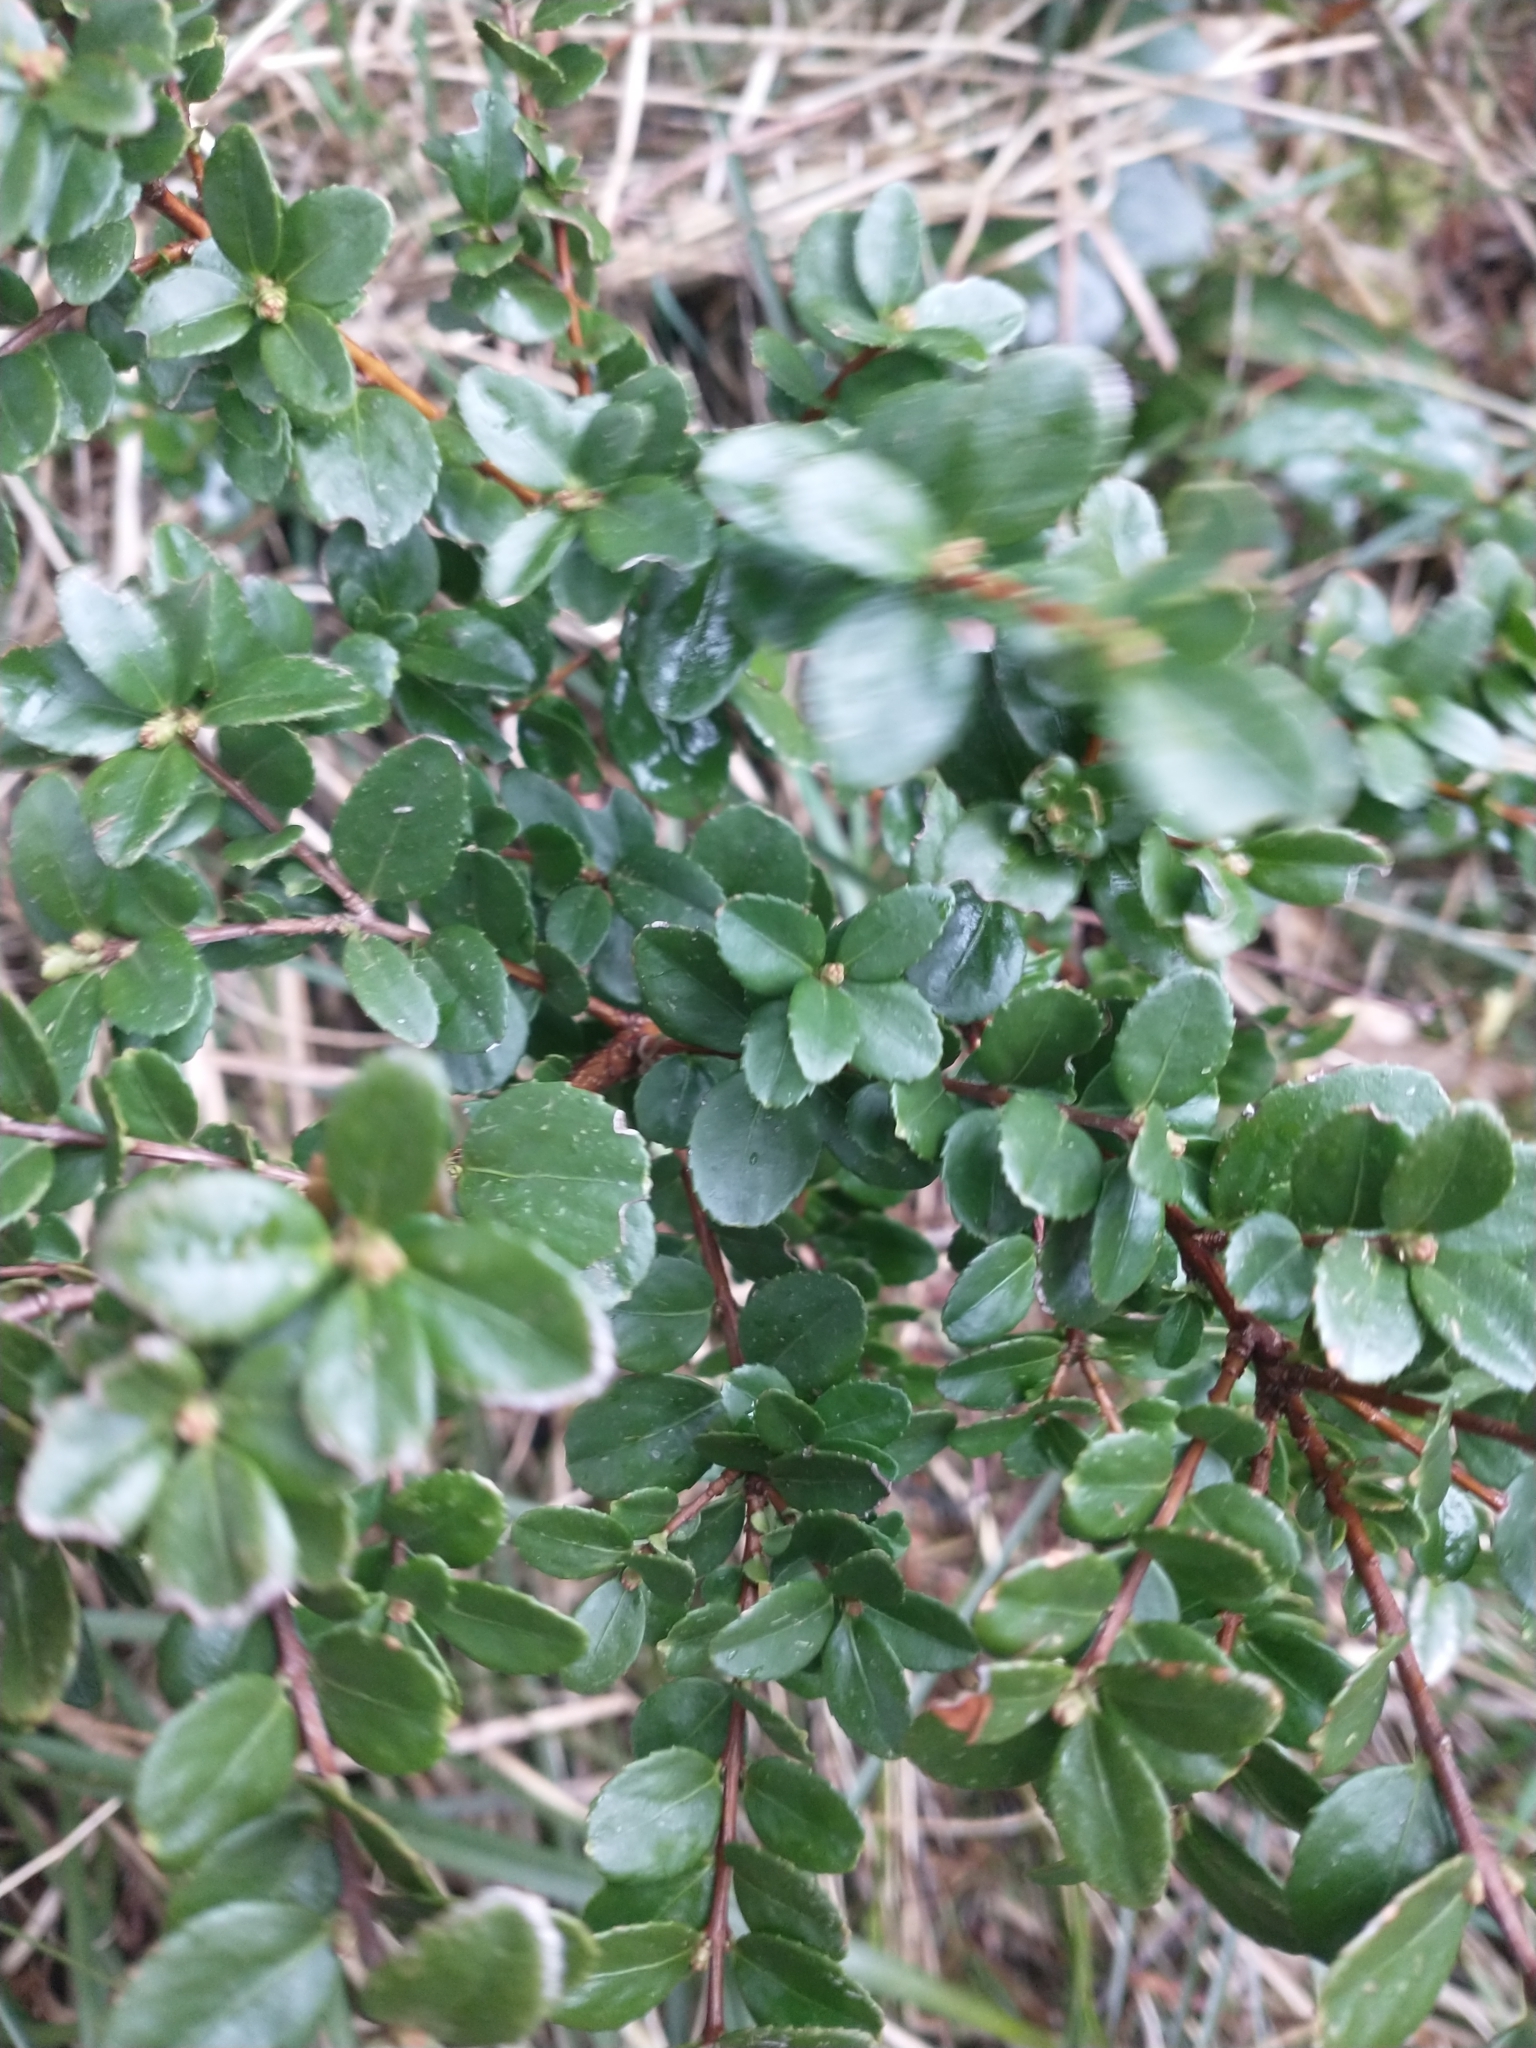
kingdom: Plantae
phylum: Tracheophyta
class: Magnoliopsida
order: Celastrales
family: Celastraceae
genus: Paxistima
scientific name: Paxistima myrsinites
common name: Mountain-lover
